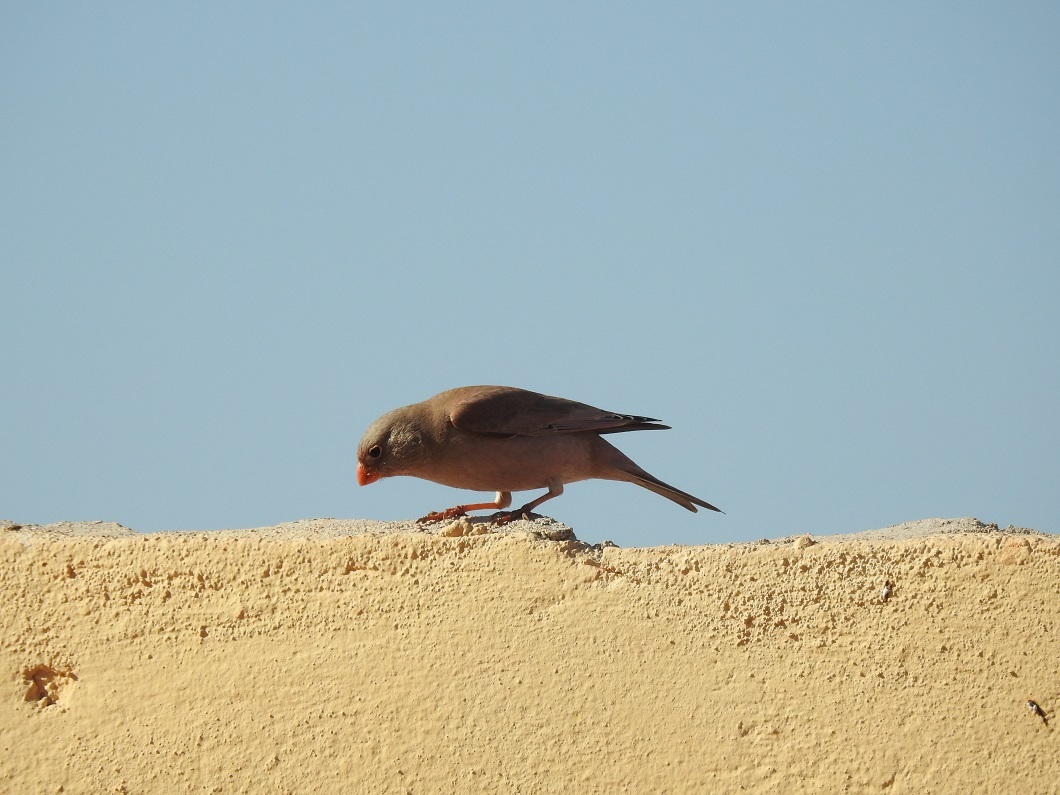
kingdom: Animalia
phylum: Chordata
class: Aves
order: Passeriformes
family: Fringillidae
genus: Bucanetes
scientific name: Bucanetes githagineus
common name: Trumpeter finch
